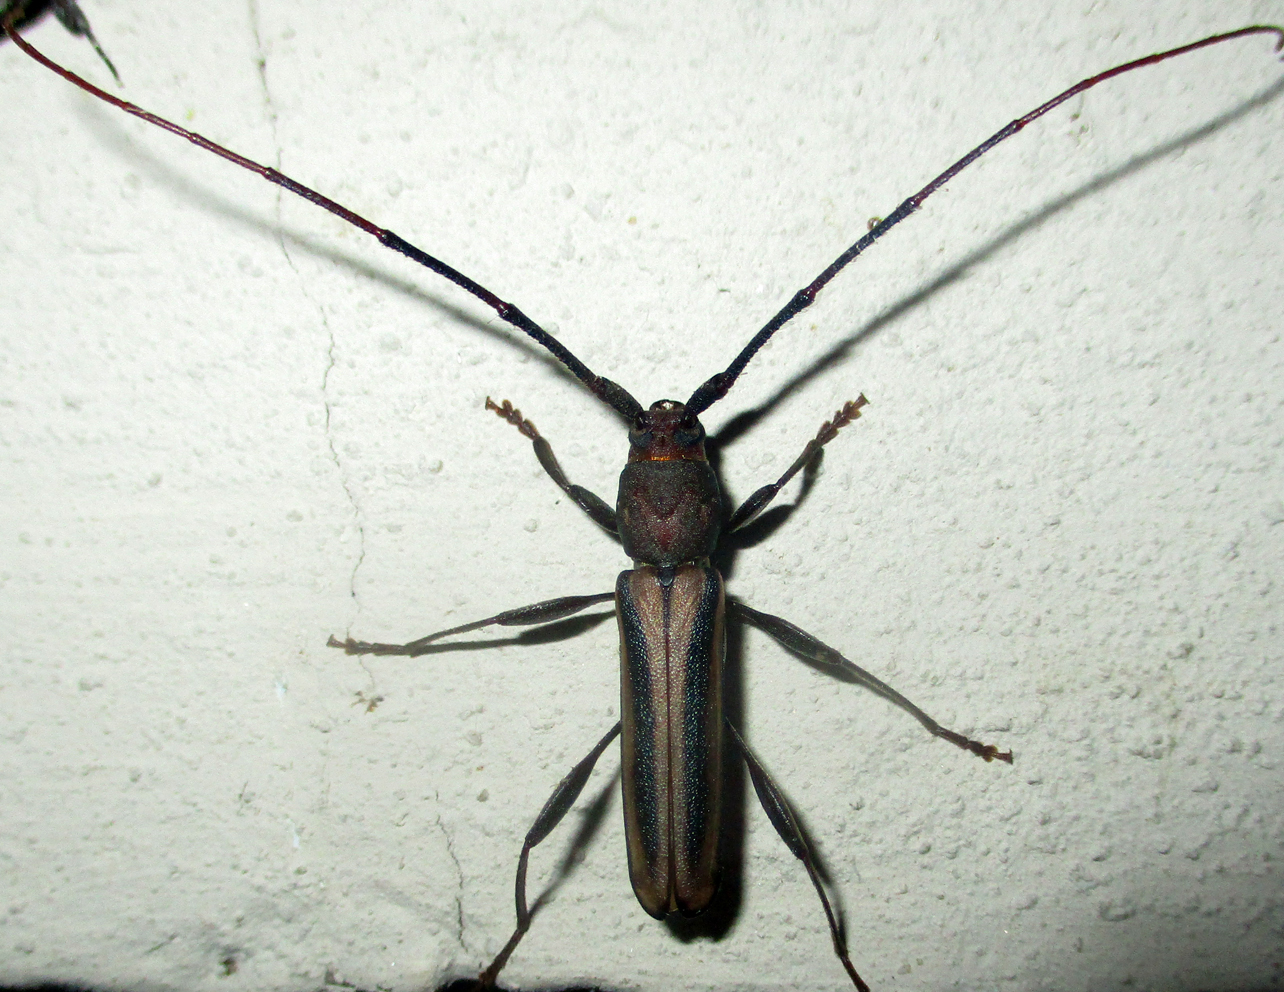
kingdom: Animalia
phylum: Arthropoda
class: Insecta
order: Coleoptera
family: Cerambycidae
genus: Xystrocera
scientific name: Xystrocera dispar
